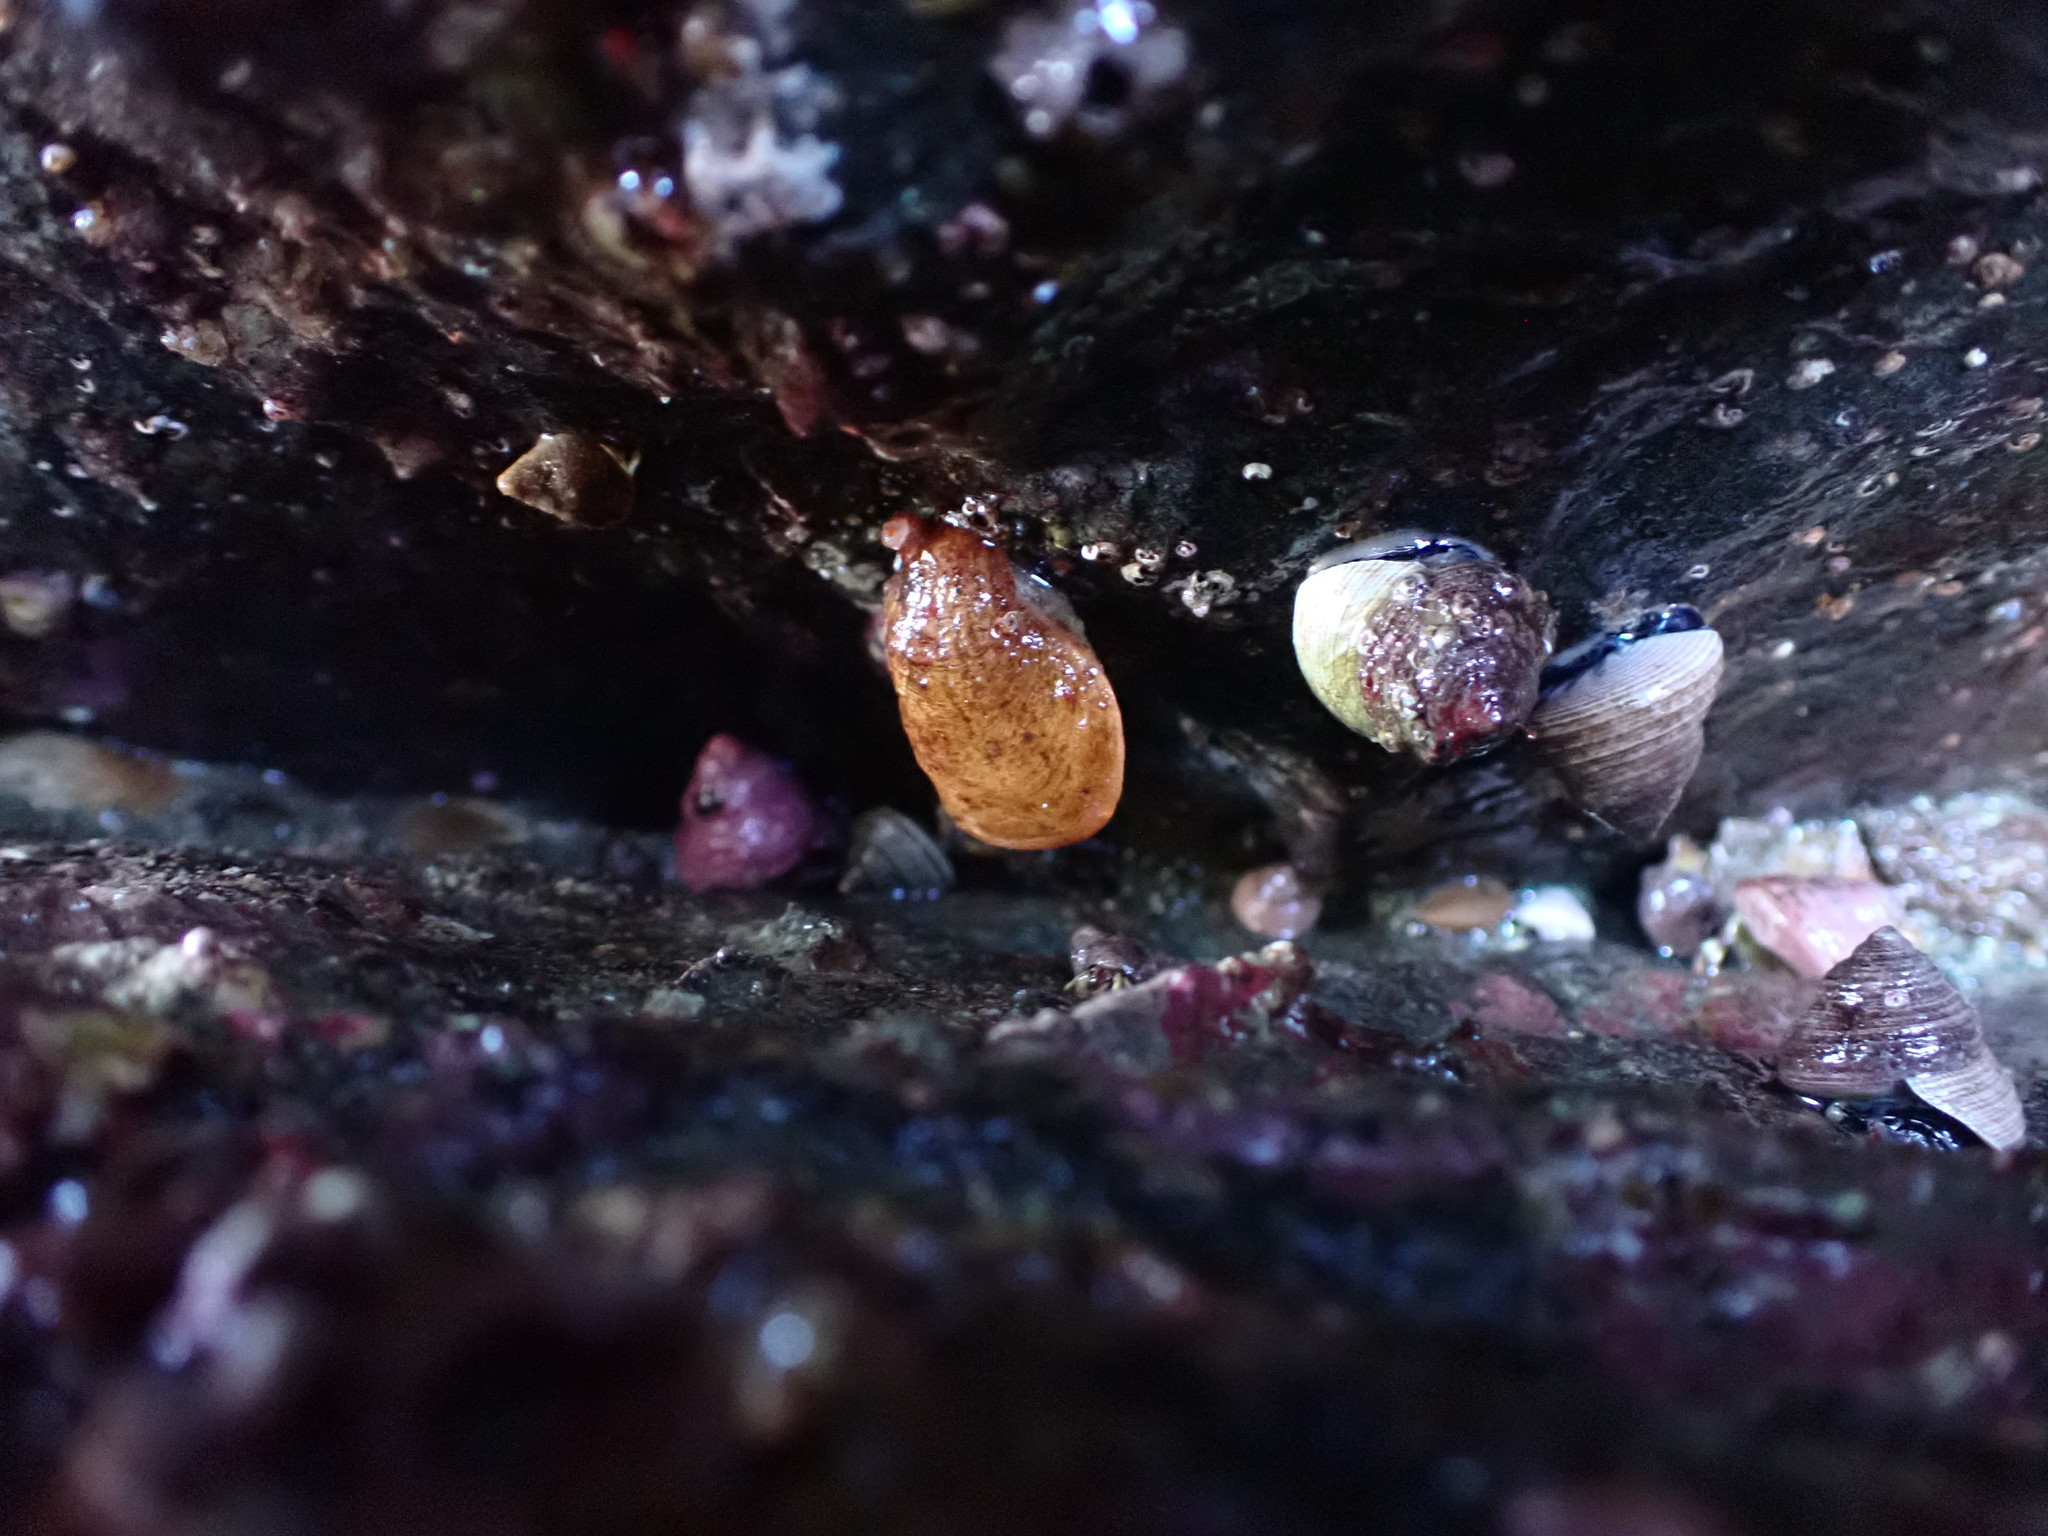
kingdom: Animalia
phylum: Brachiopoda
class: Rhynchonellata
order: Terebratulida
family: Terebrataliidae
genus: Terebratalia
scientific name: Terebratalia transversa
